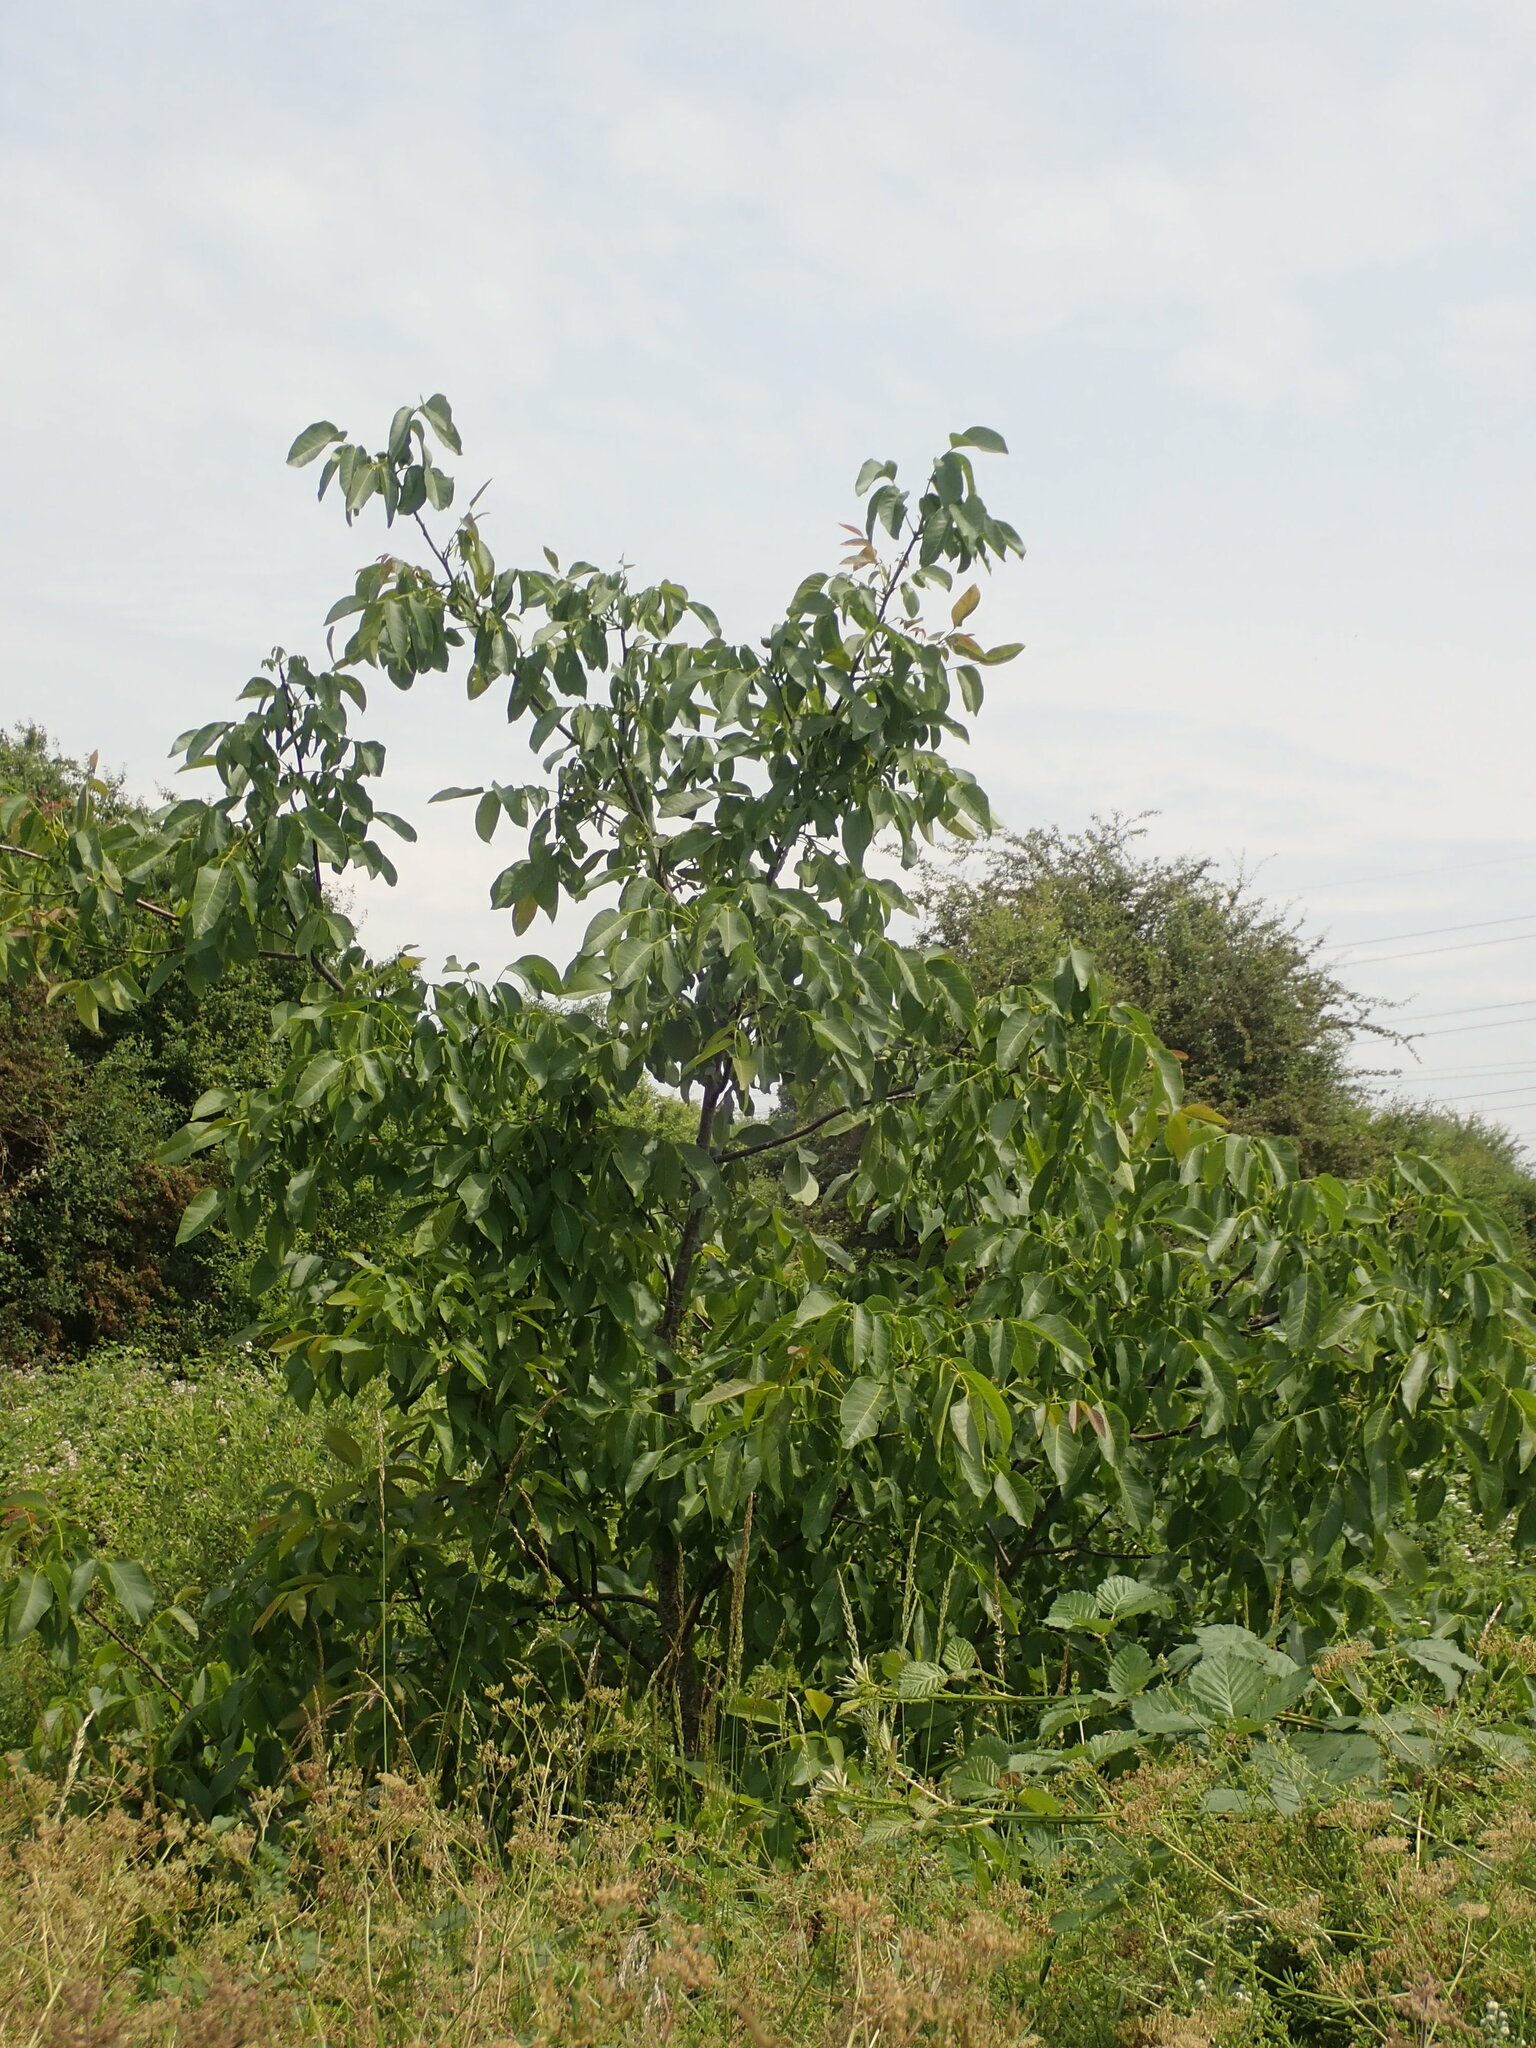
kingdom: Plantae
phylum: Tracheophyta
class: Magnoliopsida
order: Fagales
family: Juglandaceae
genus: Juglans
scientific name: Juglans regia
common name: Walnut
